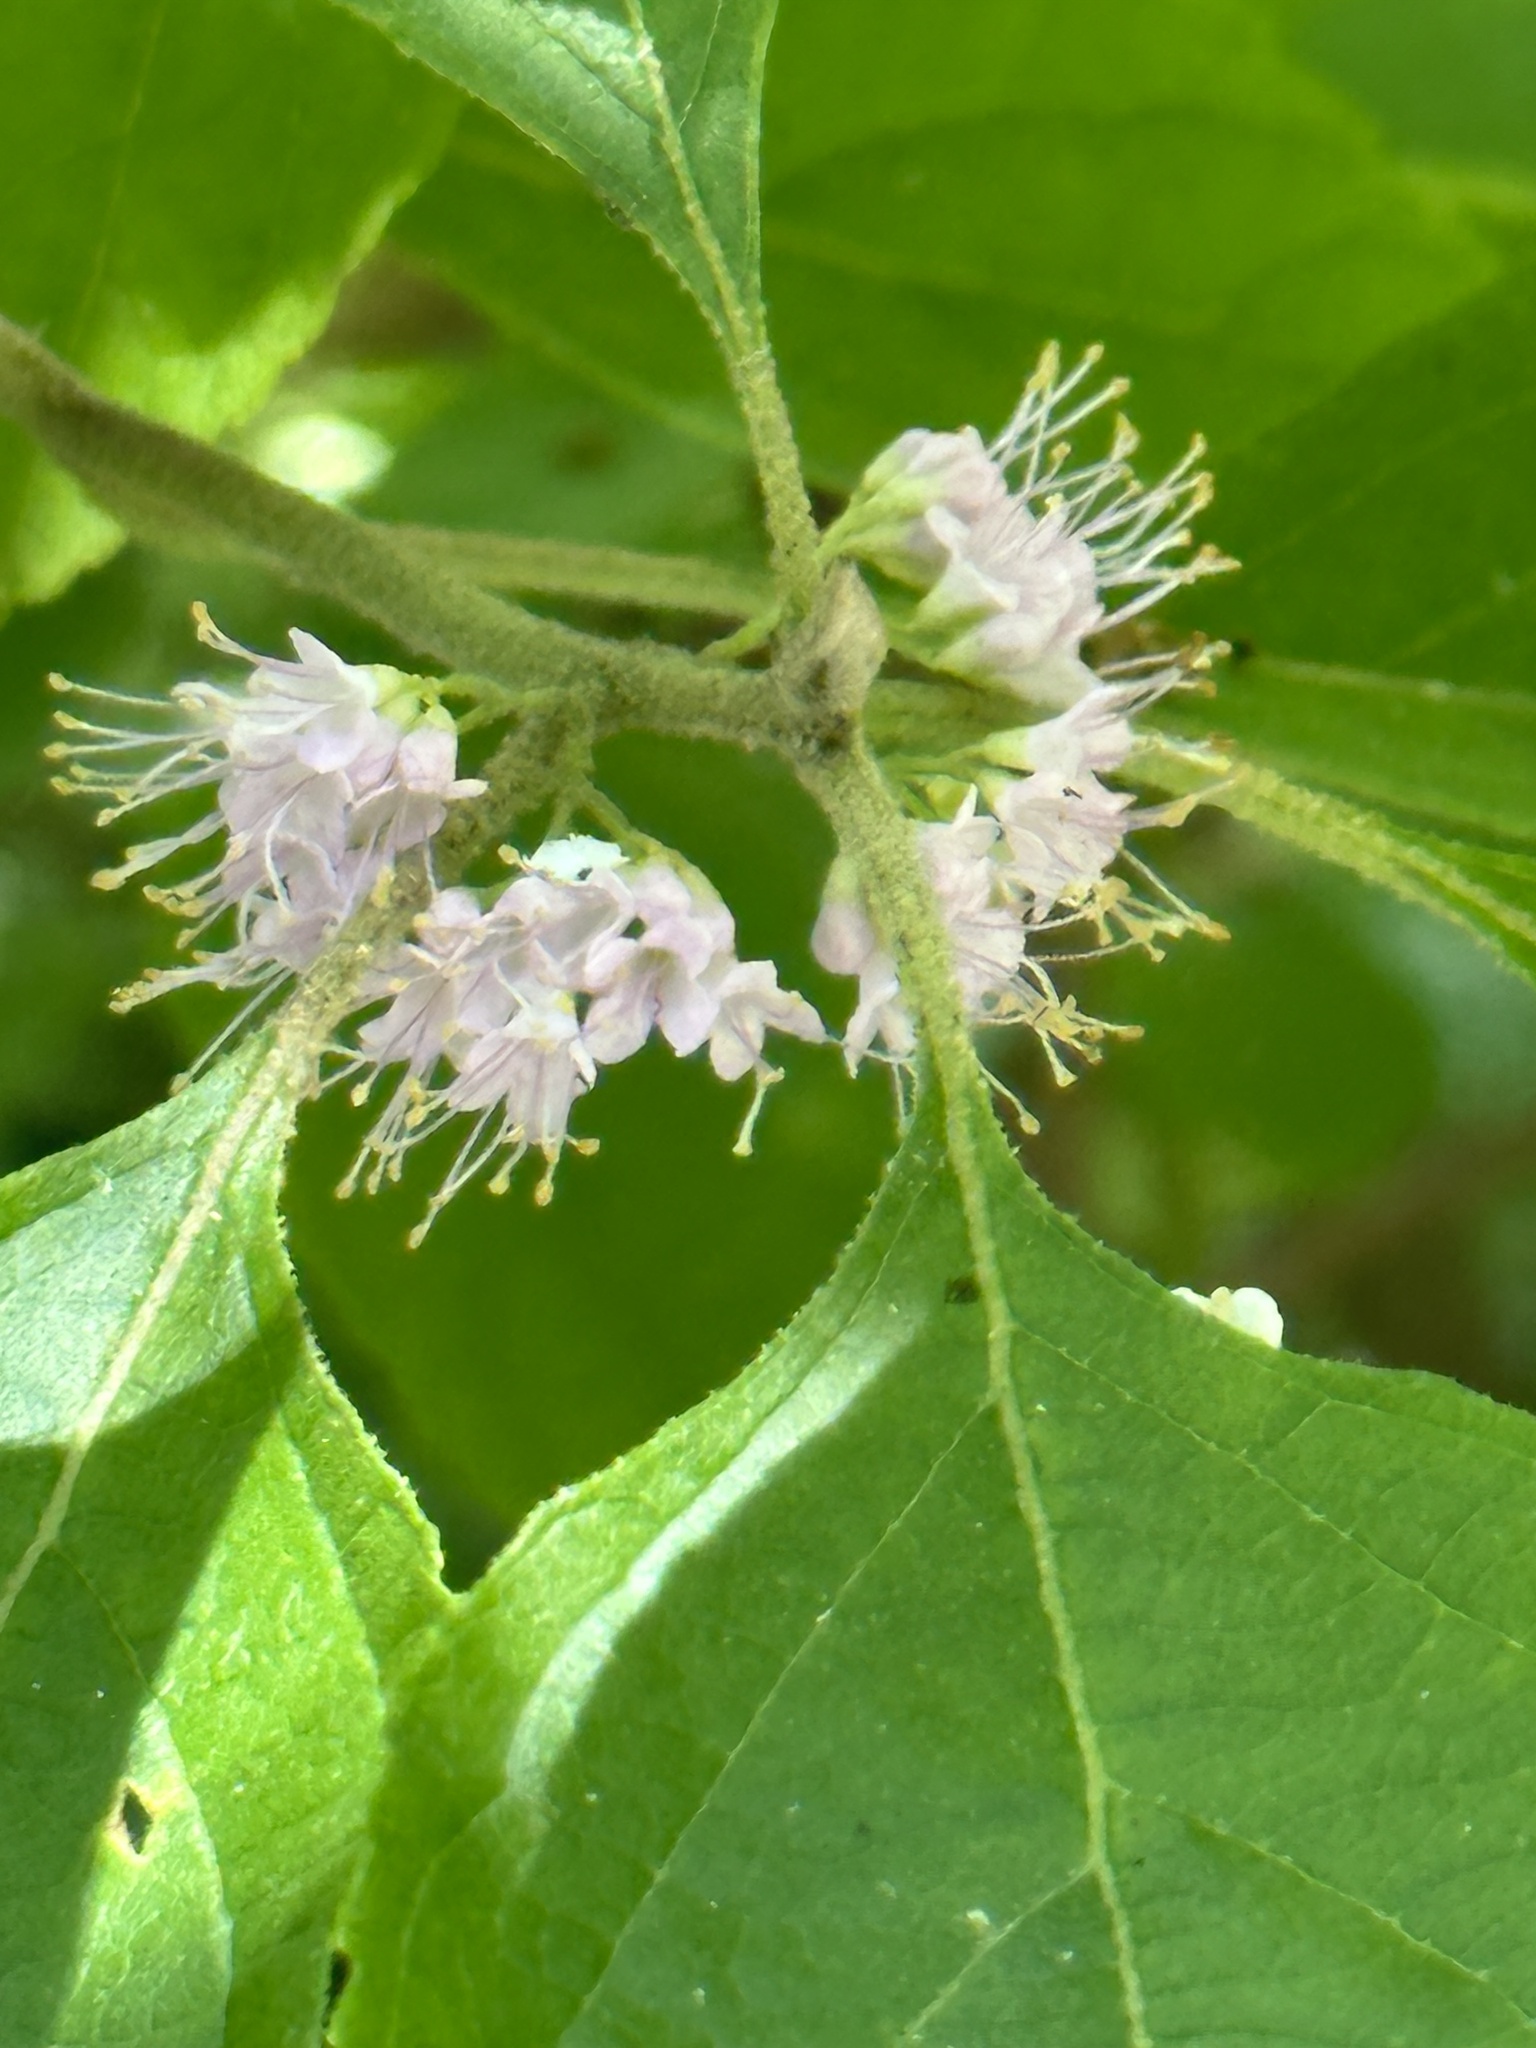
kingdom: Plantae
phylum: Tracheophyta
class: Magnoliopsida
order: Lamiales
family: Lamiaceae
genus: Callicarpa
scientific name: Callicarpa americana
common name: American beautyberry
